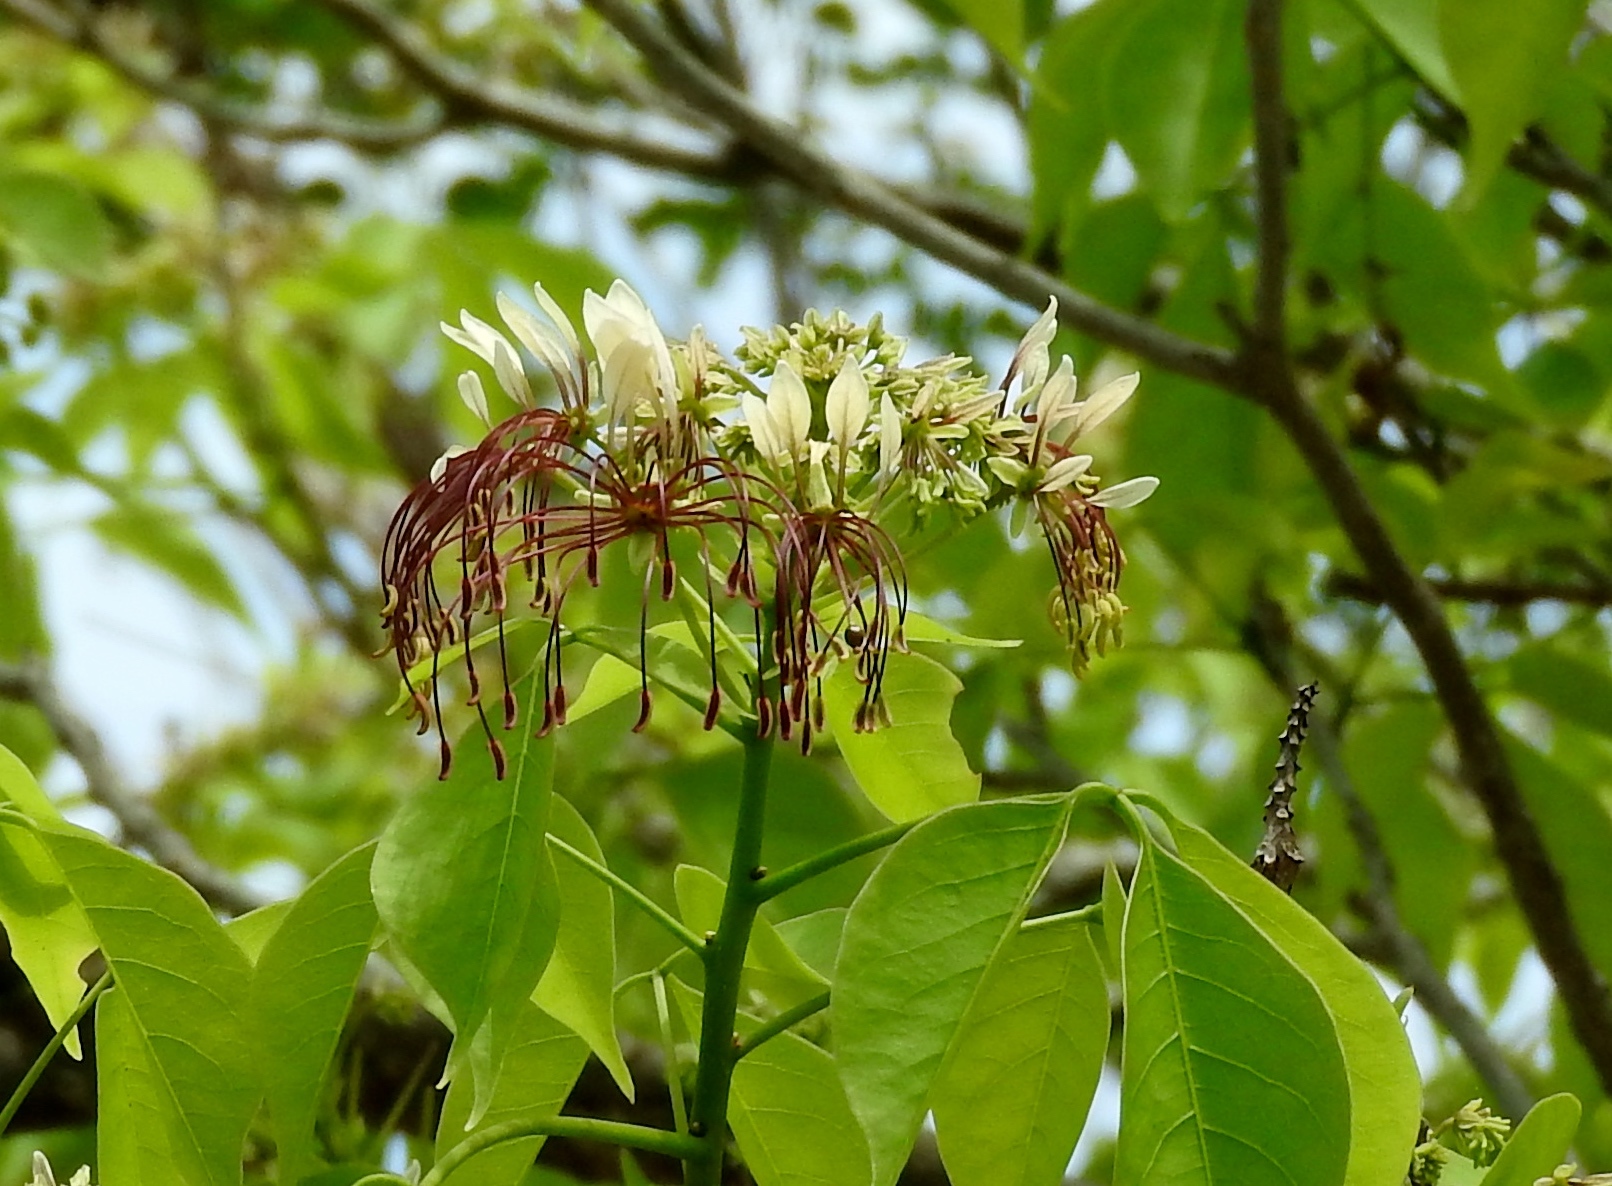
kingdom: Plantae
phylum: Tracheophyta
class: Magnoliopsida
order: Brassicales
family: Capparaceae
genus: Crateva
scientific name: Crateva tapia
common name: Garlic-pear
